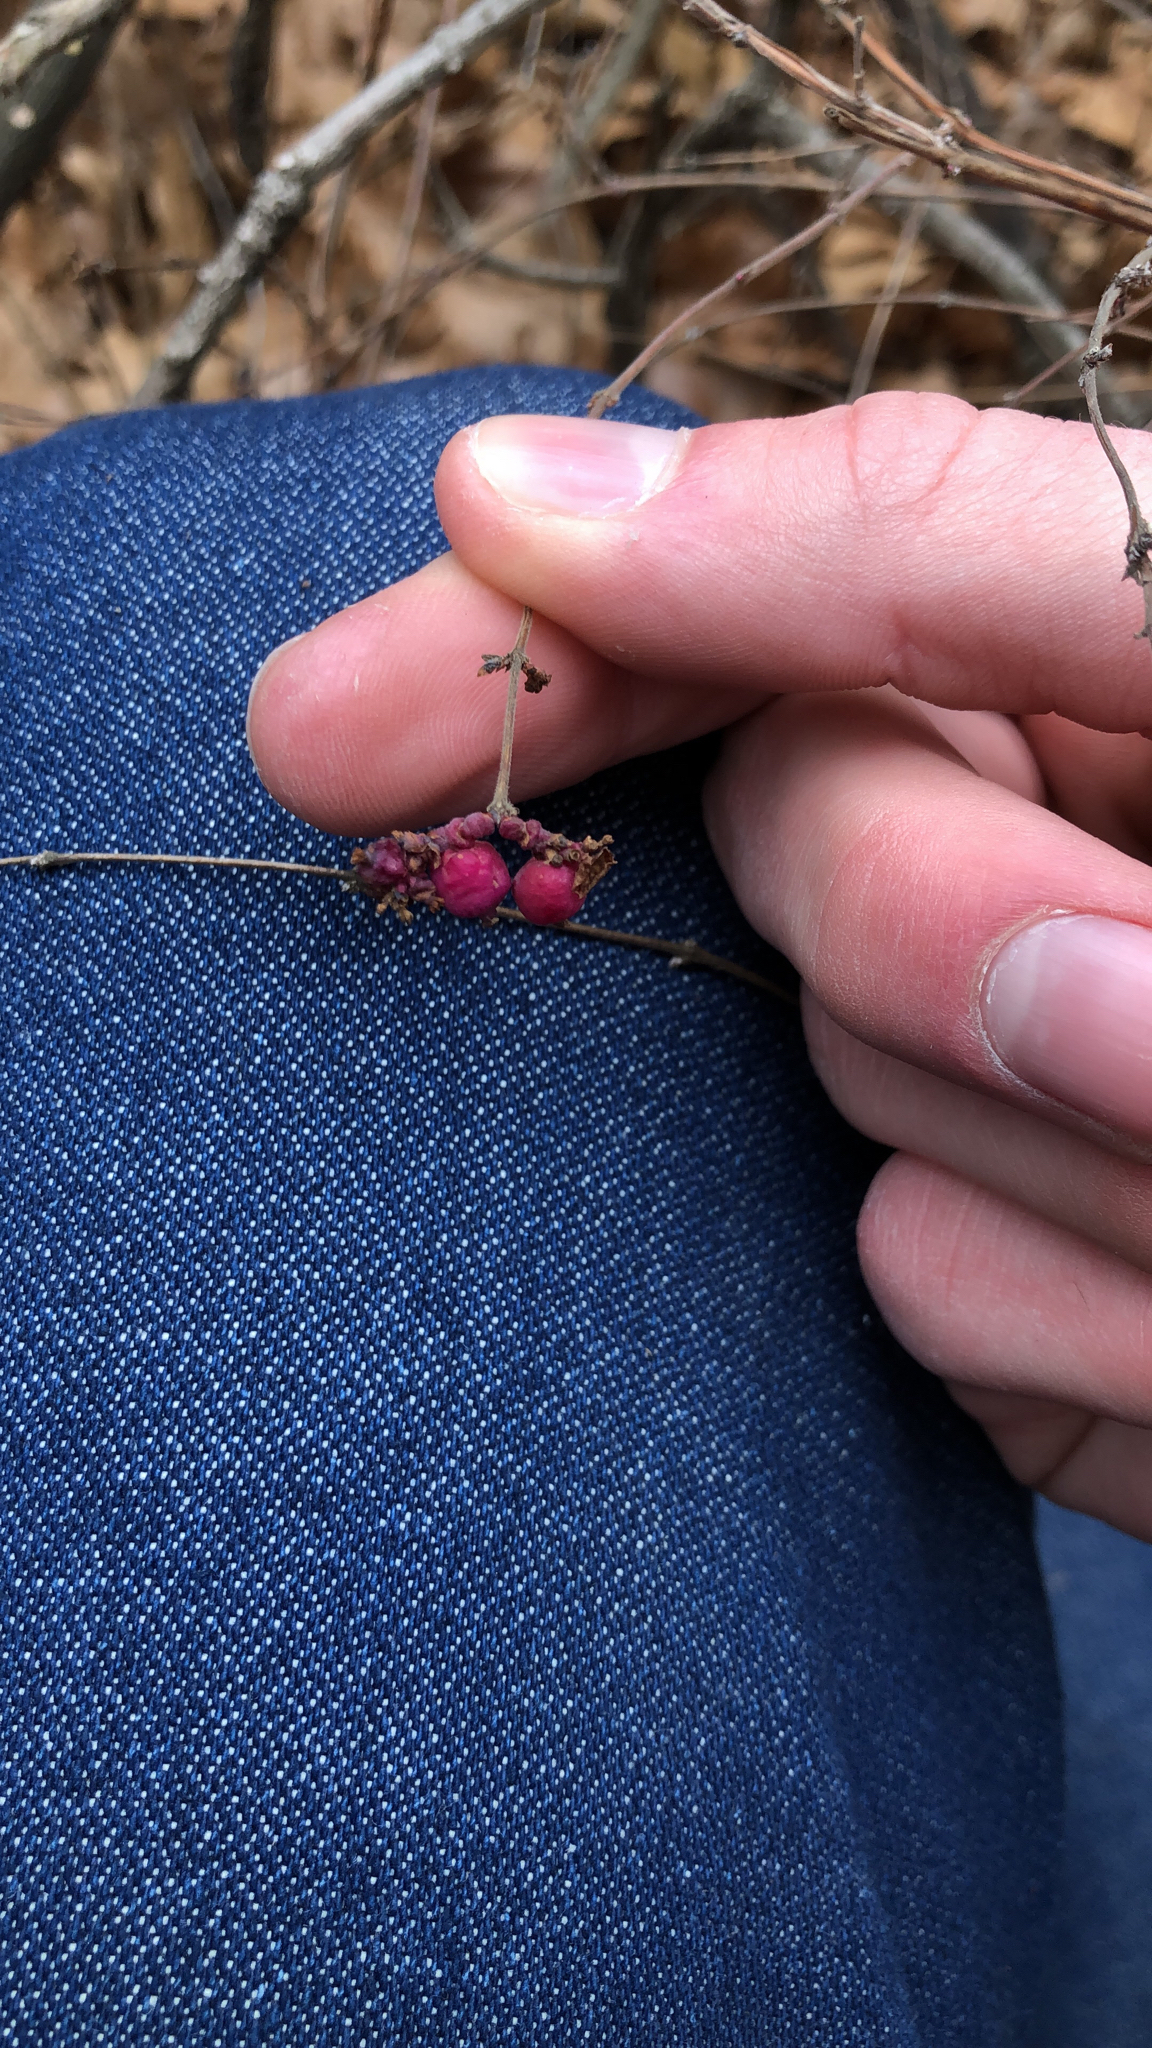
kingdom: Plantae
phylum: Tracheophyta
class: Magnoliopsida
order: Dipsacales
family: Caprifoliaceae
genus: Symphoricarpos
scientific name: Symphoricarpos orbiculatus
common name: Coralberry
